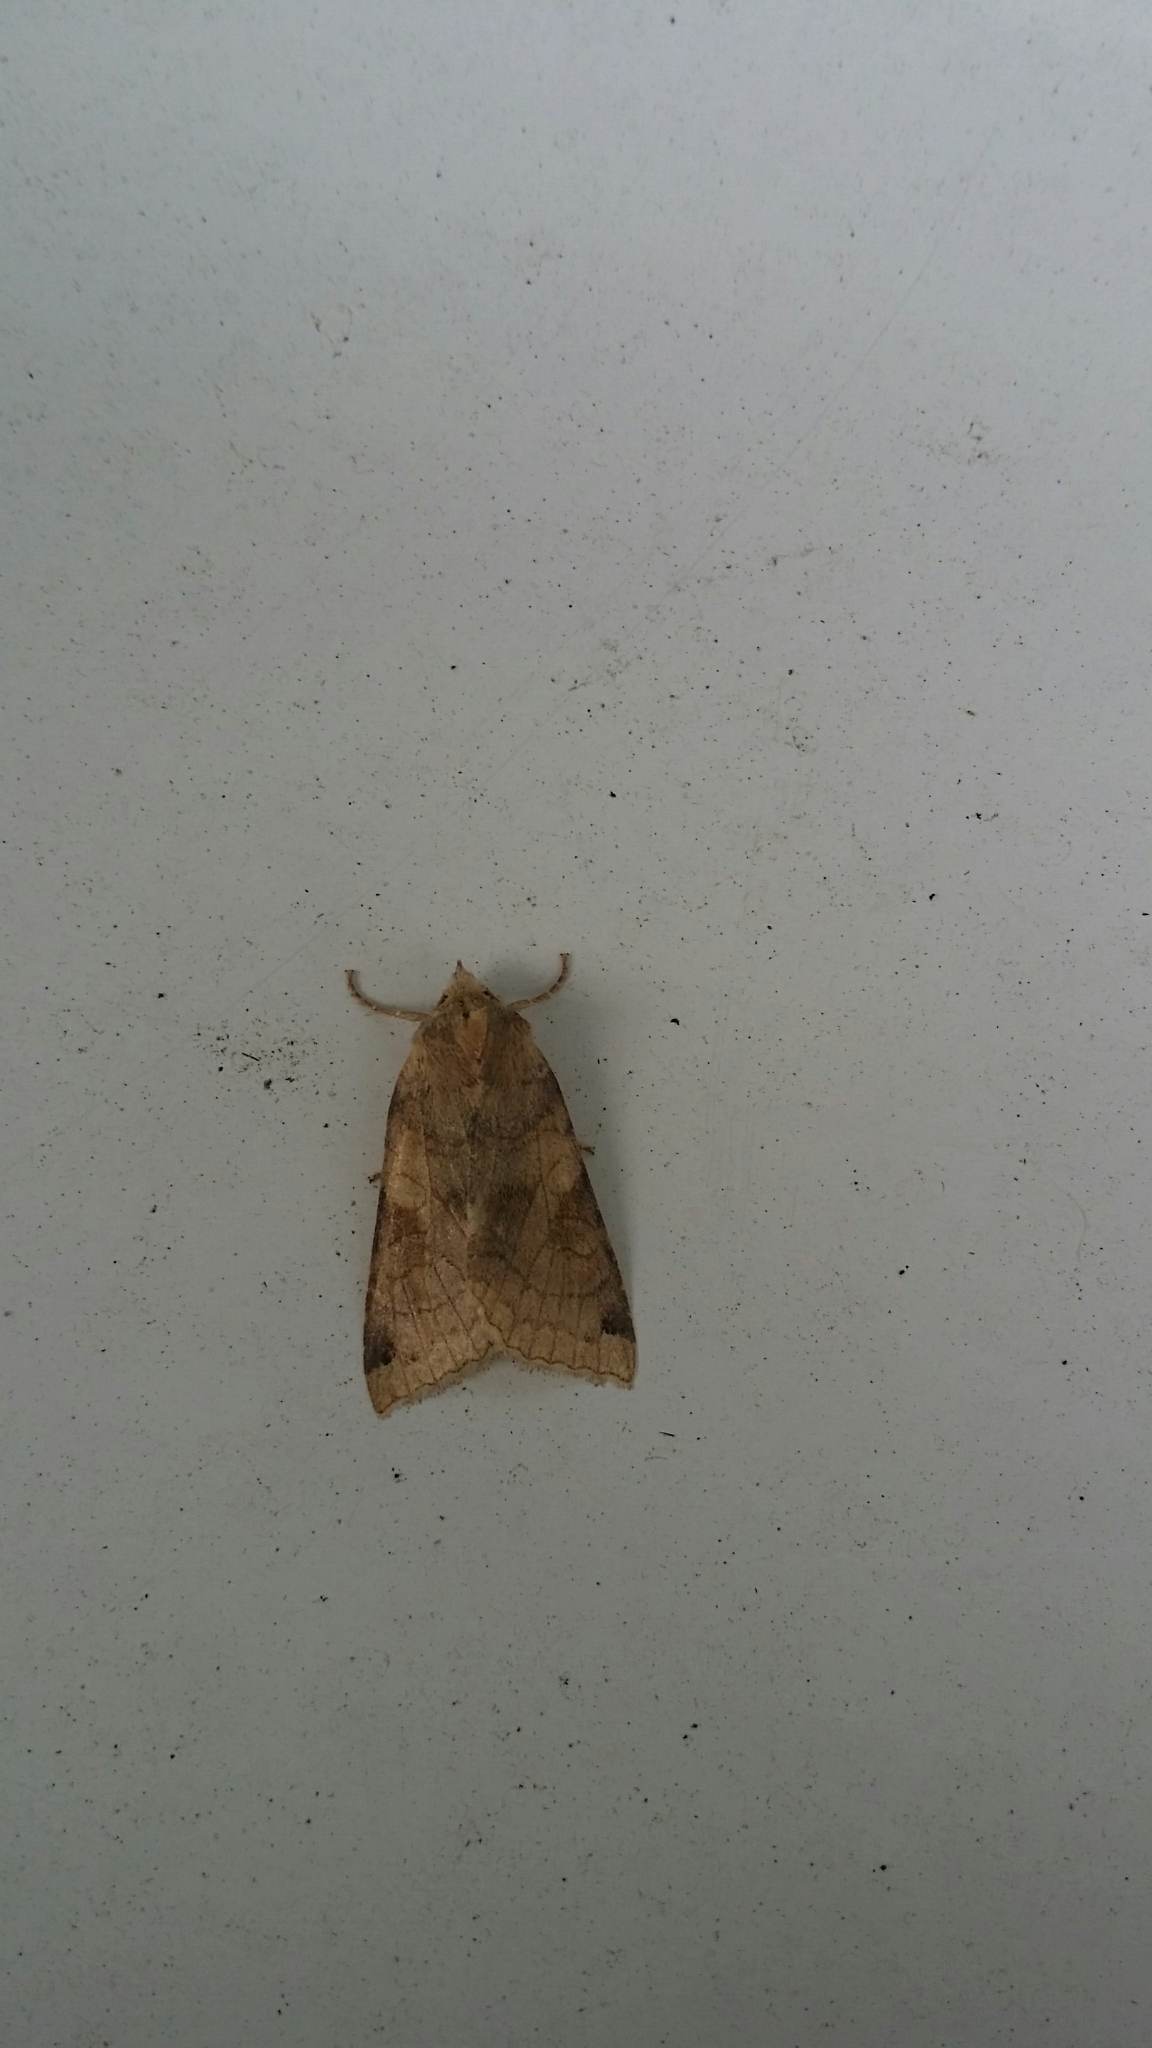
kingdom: Animalia
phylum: Arthropoda
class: Insecta
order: Lepidoptera
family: Noctuidae
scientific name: Noctuidae
